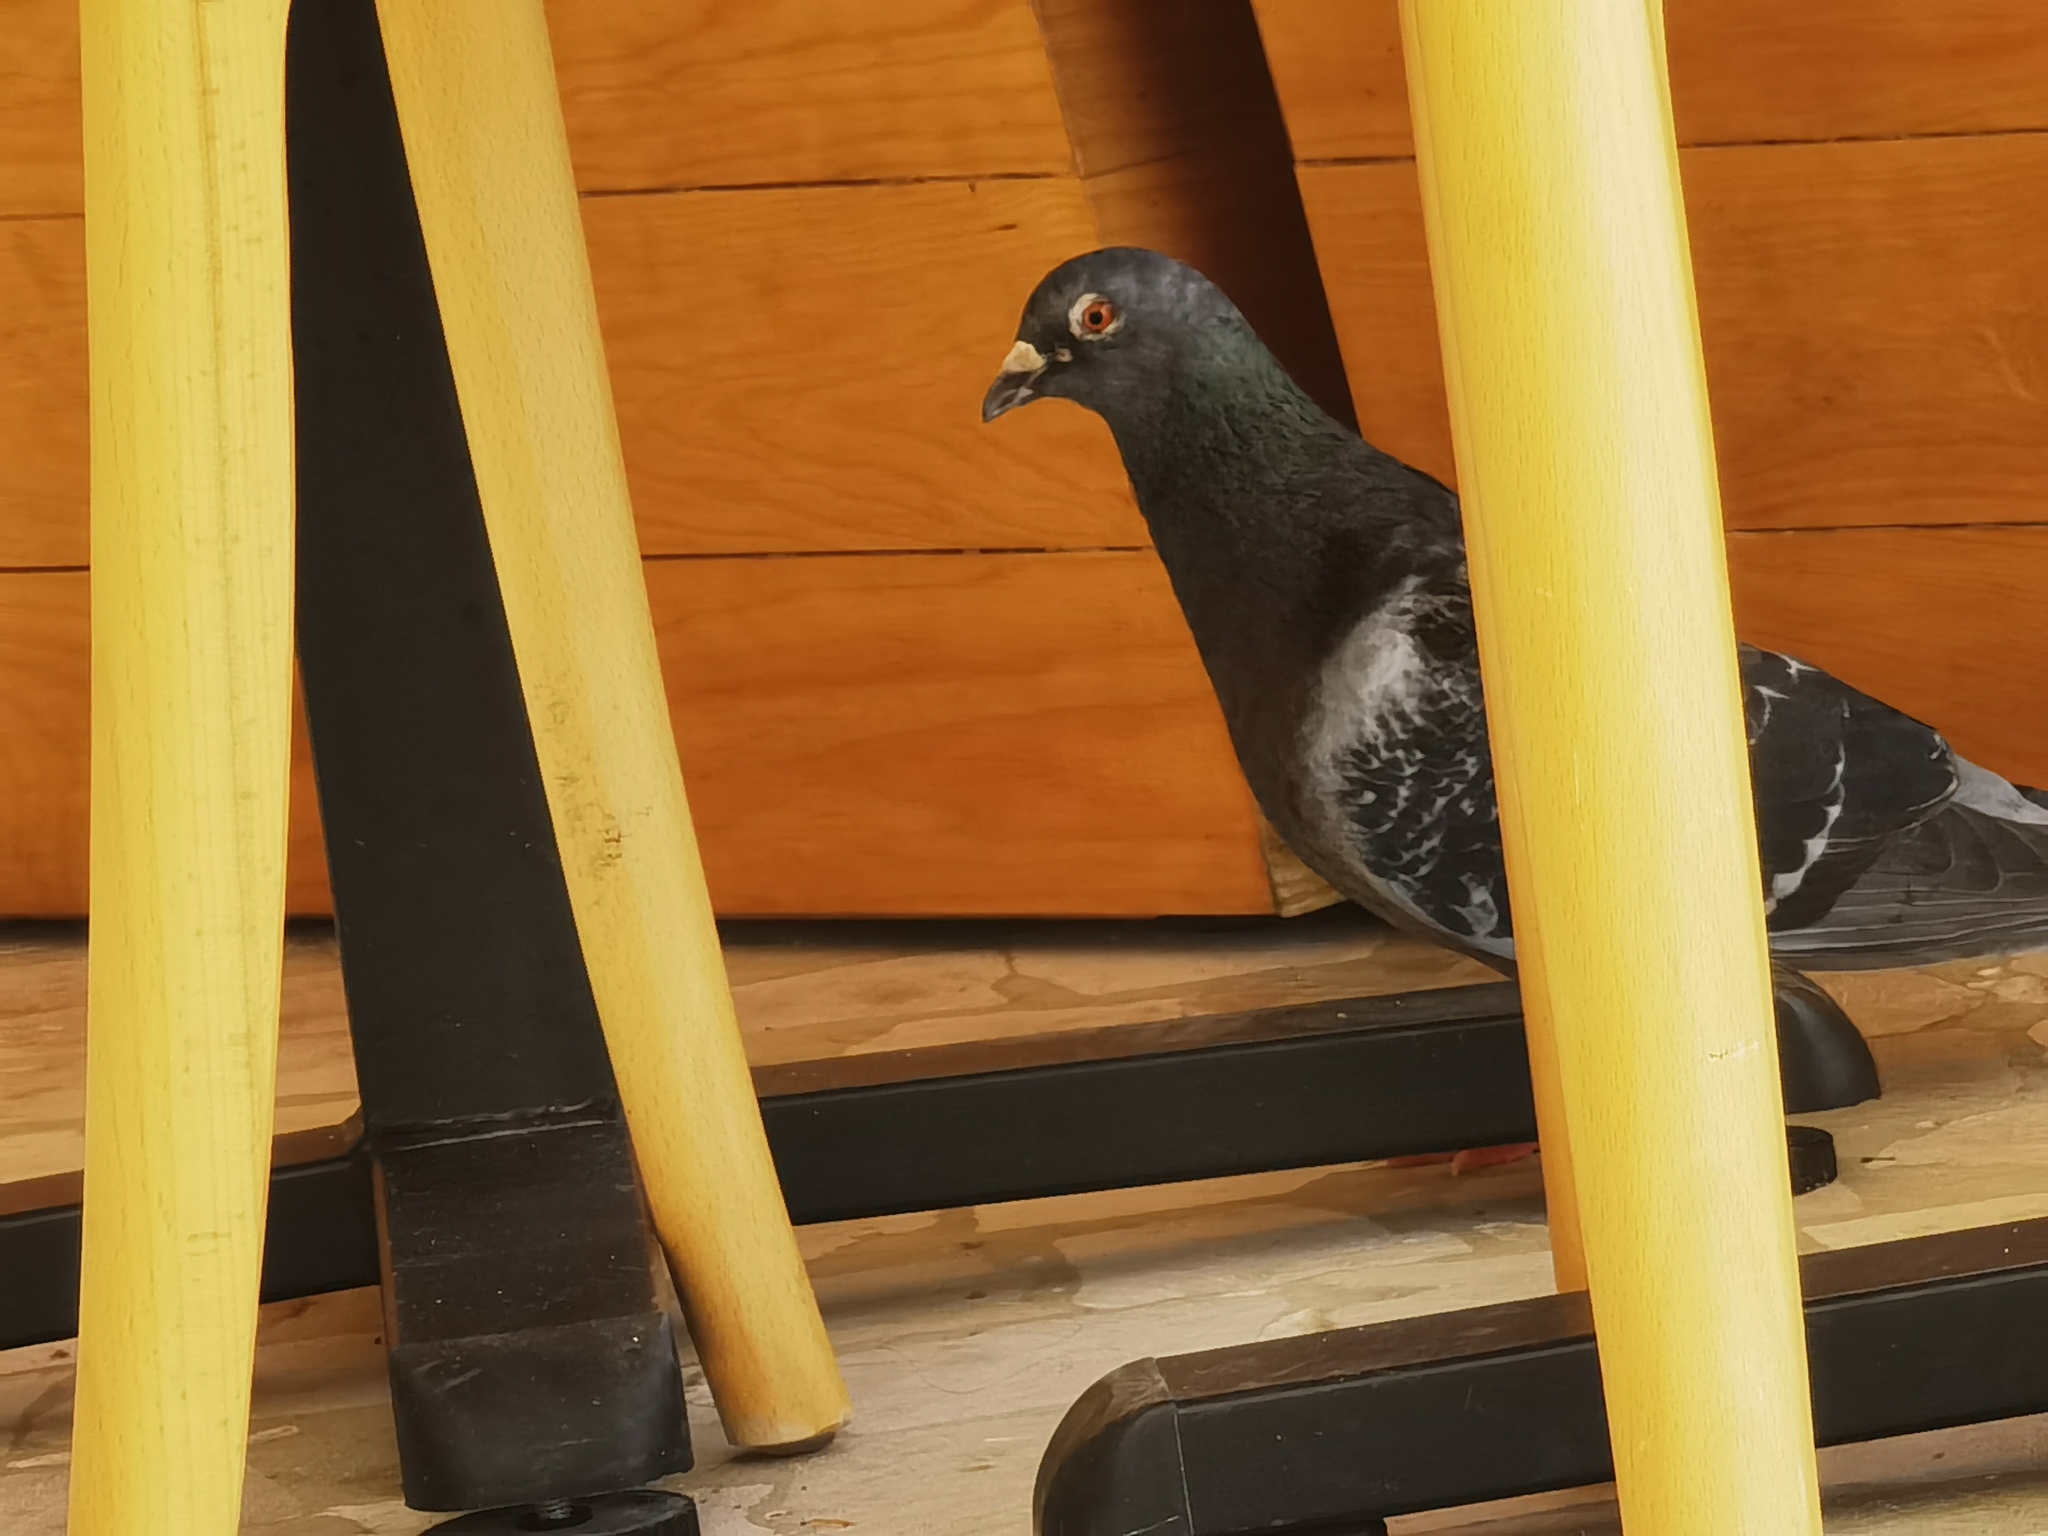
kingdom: Animalia
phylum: Chordata
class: Aves
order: Columbiformes
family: Columbidae
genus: Columba
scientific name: Columba livia
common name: Rock pigeon
